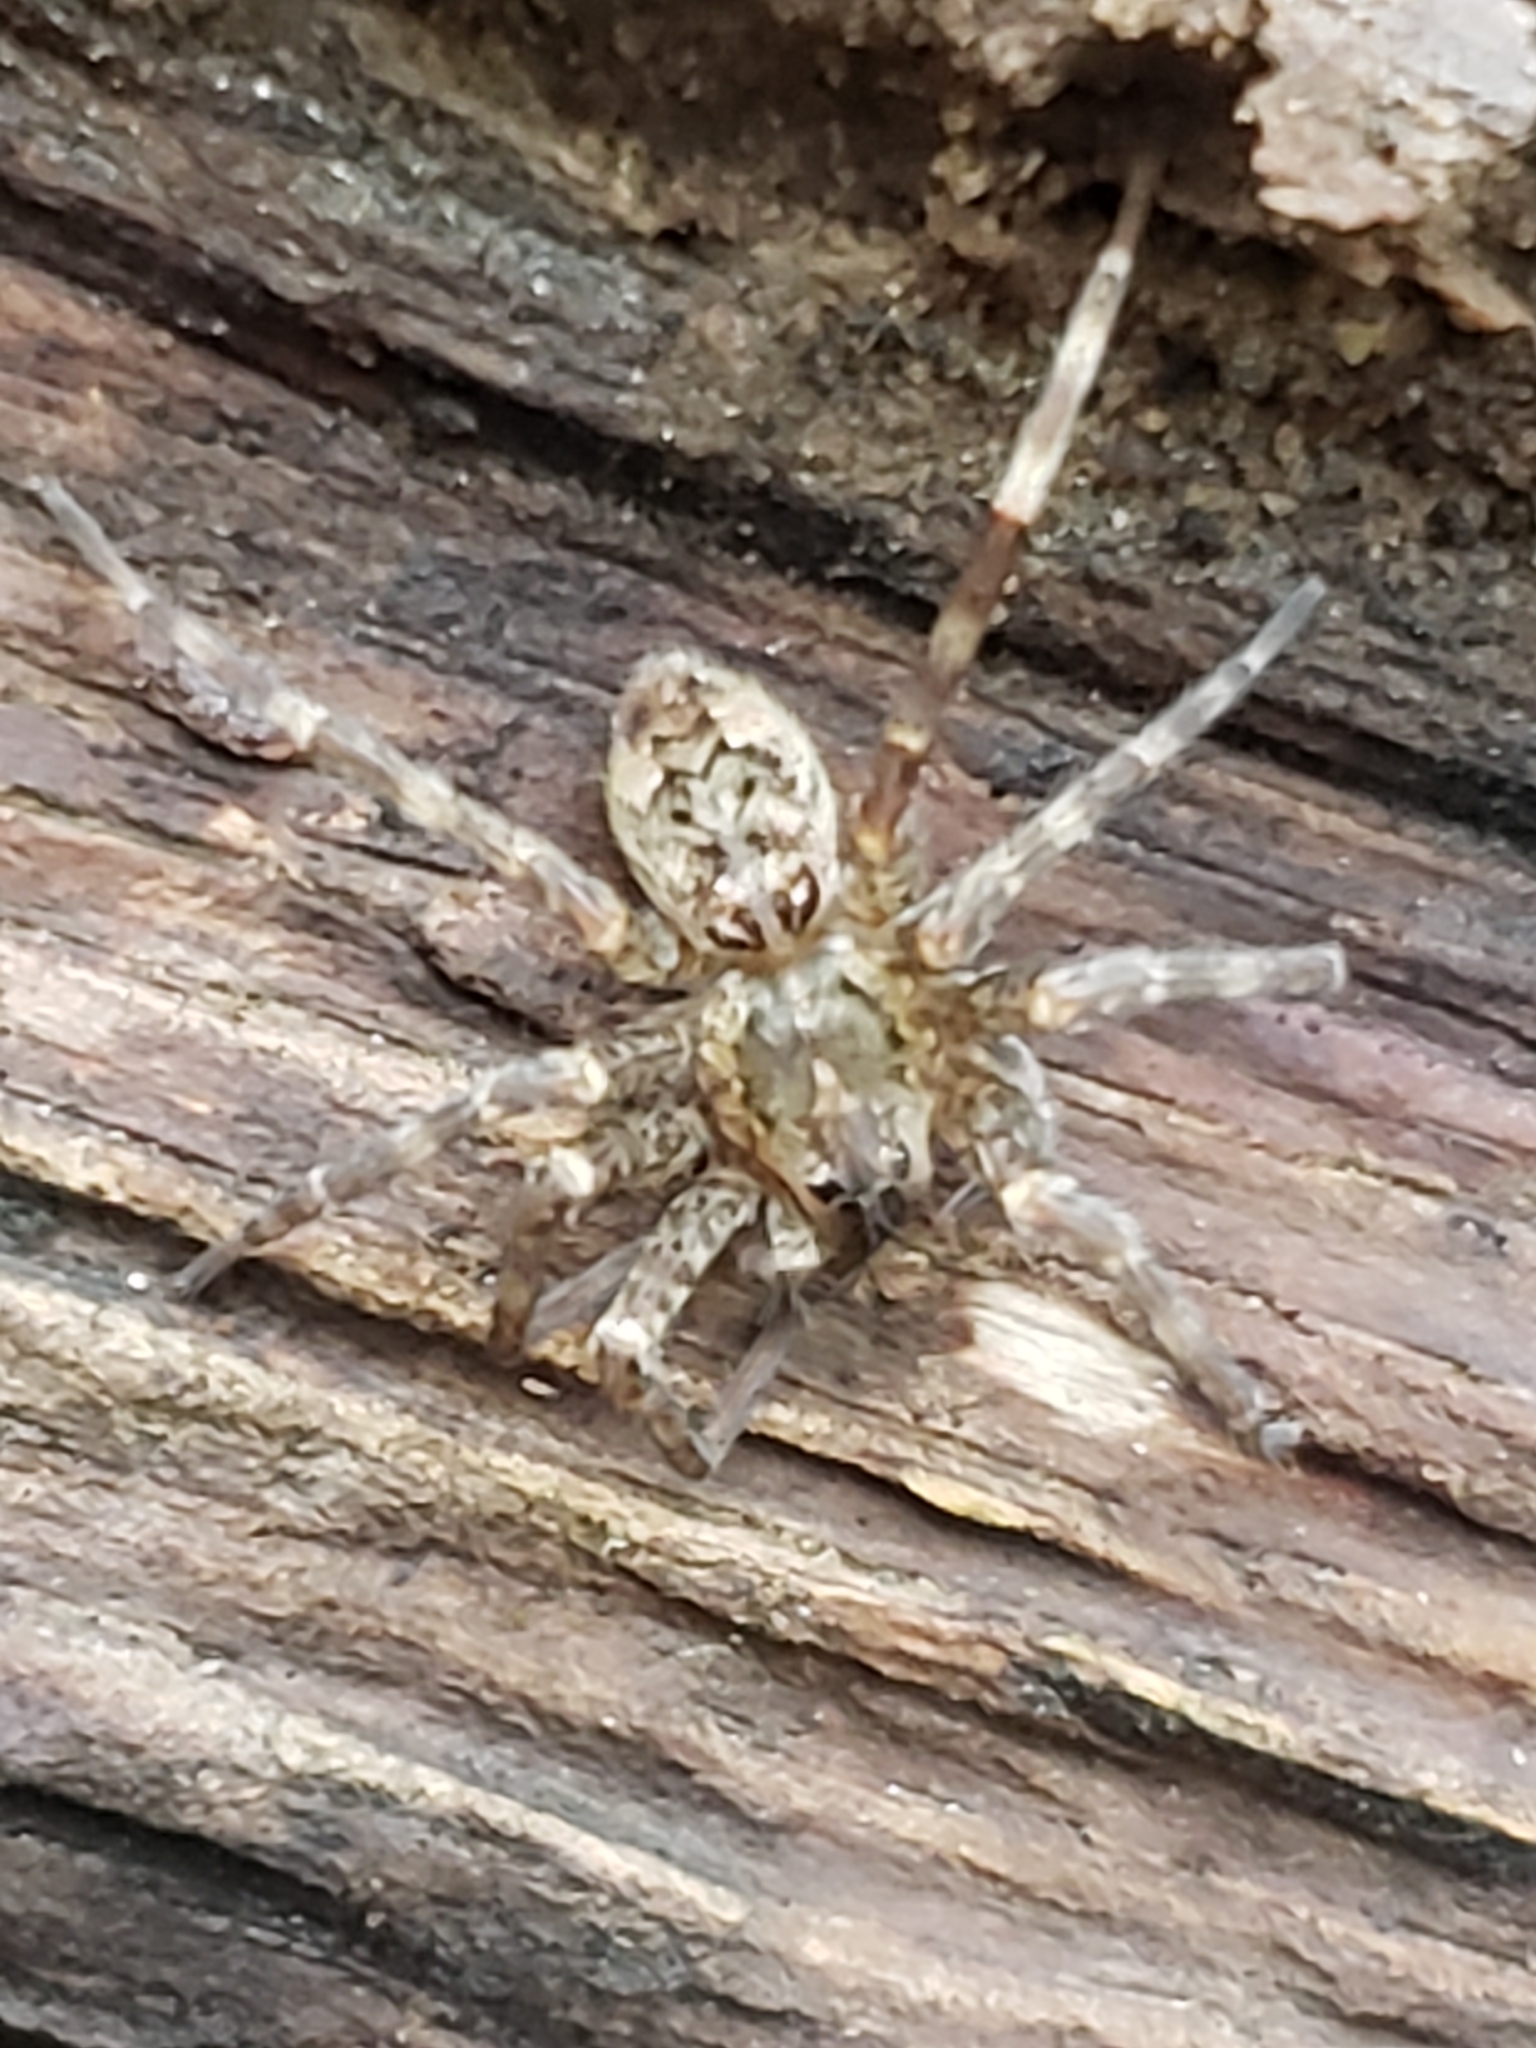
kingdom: Animalia
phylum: Arthropoda
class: Arachnida
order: Araneae
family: Pisauridae
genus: Dolomedes
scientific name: Dolomedes tenebrosus
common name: Dark fishing spider
